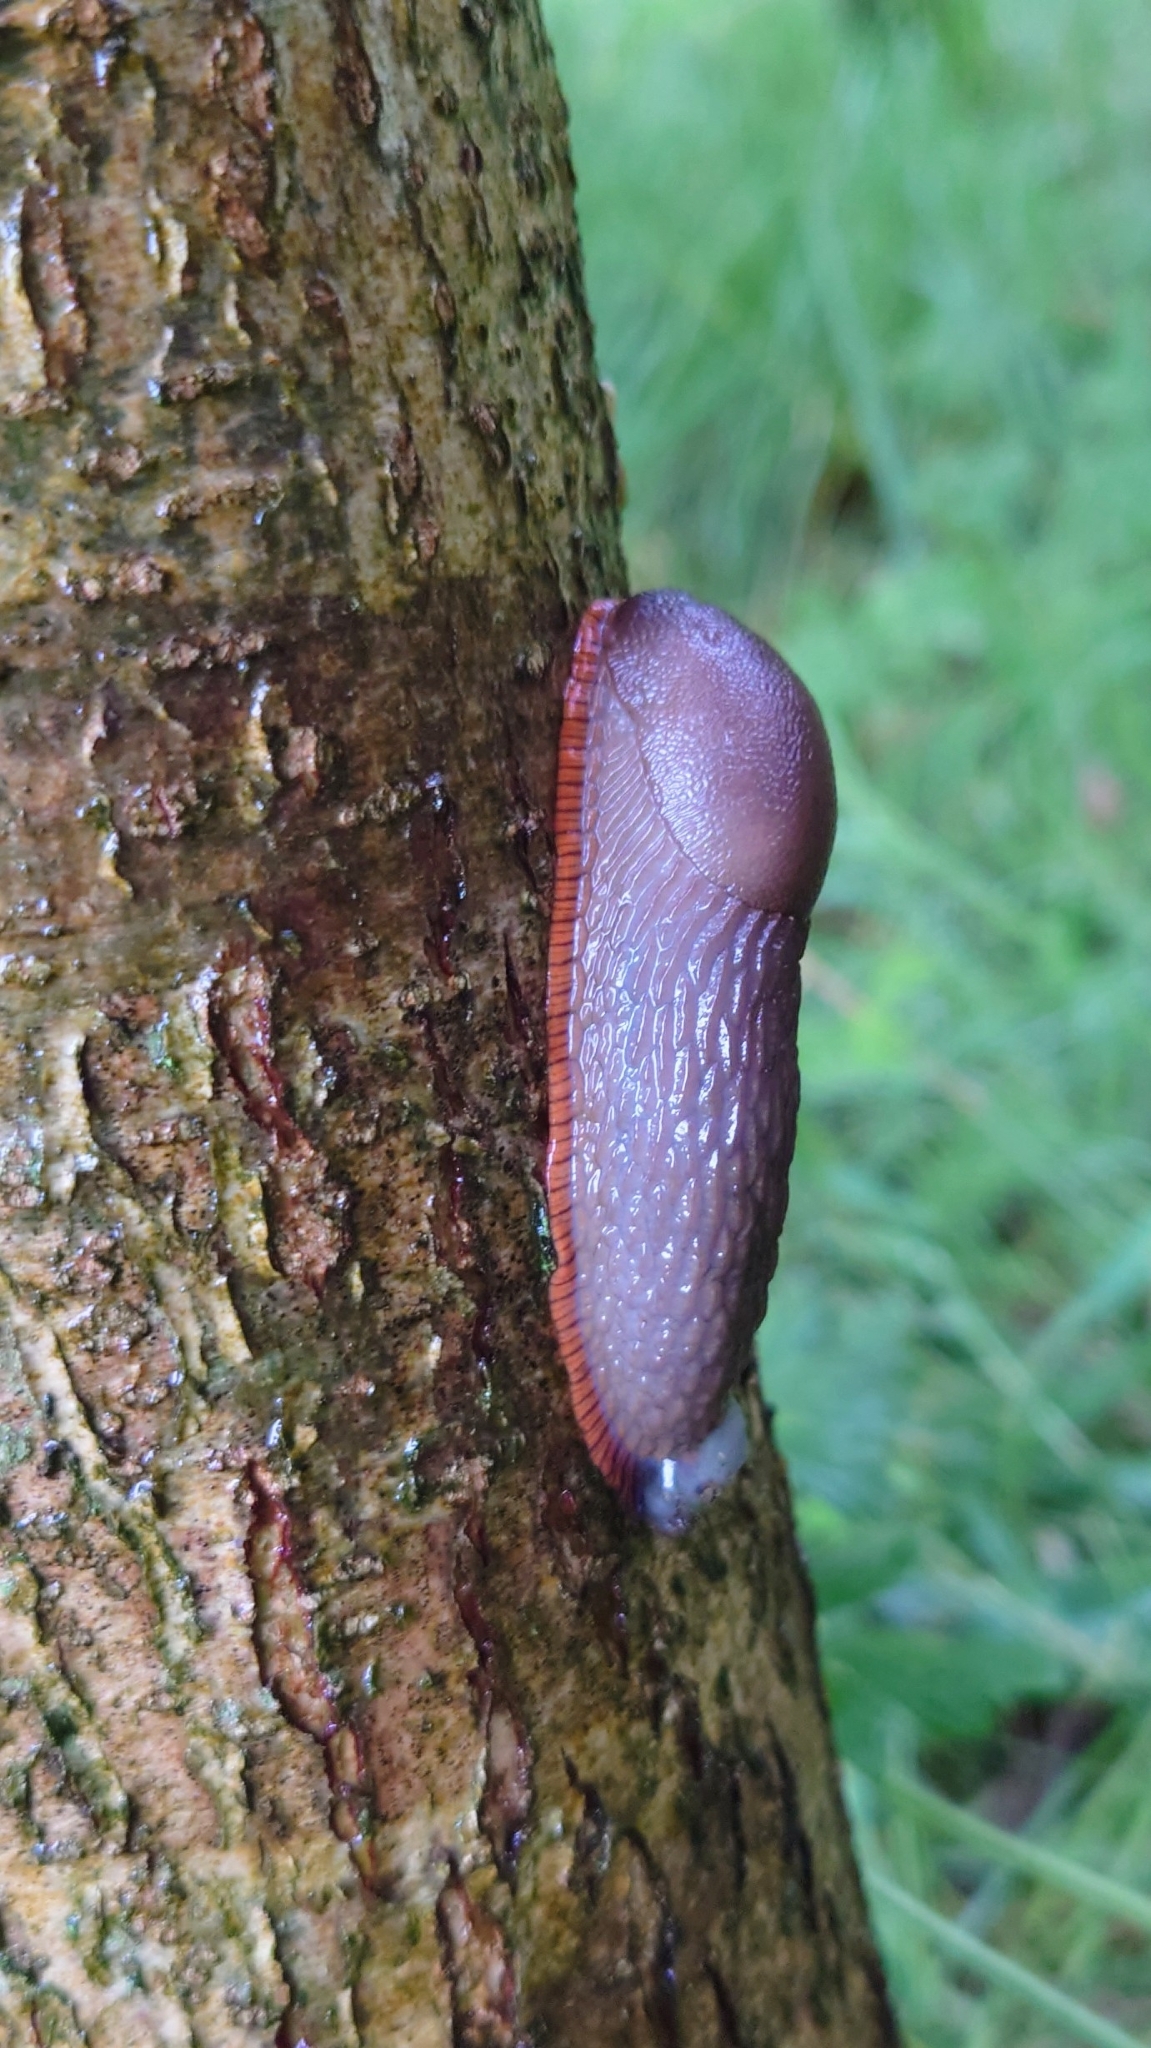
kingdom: Animalia
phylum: Mollusca
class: Gastropoda
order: Stylommatophora
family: Arionidae
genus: Arion
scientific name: Arion rufus
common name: Chocolate arion
